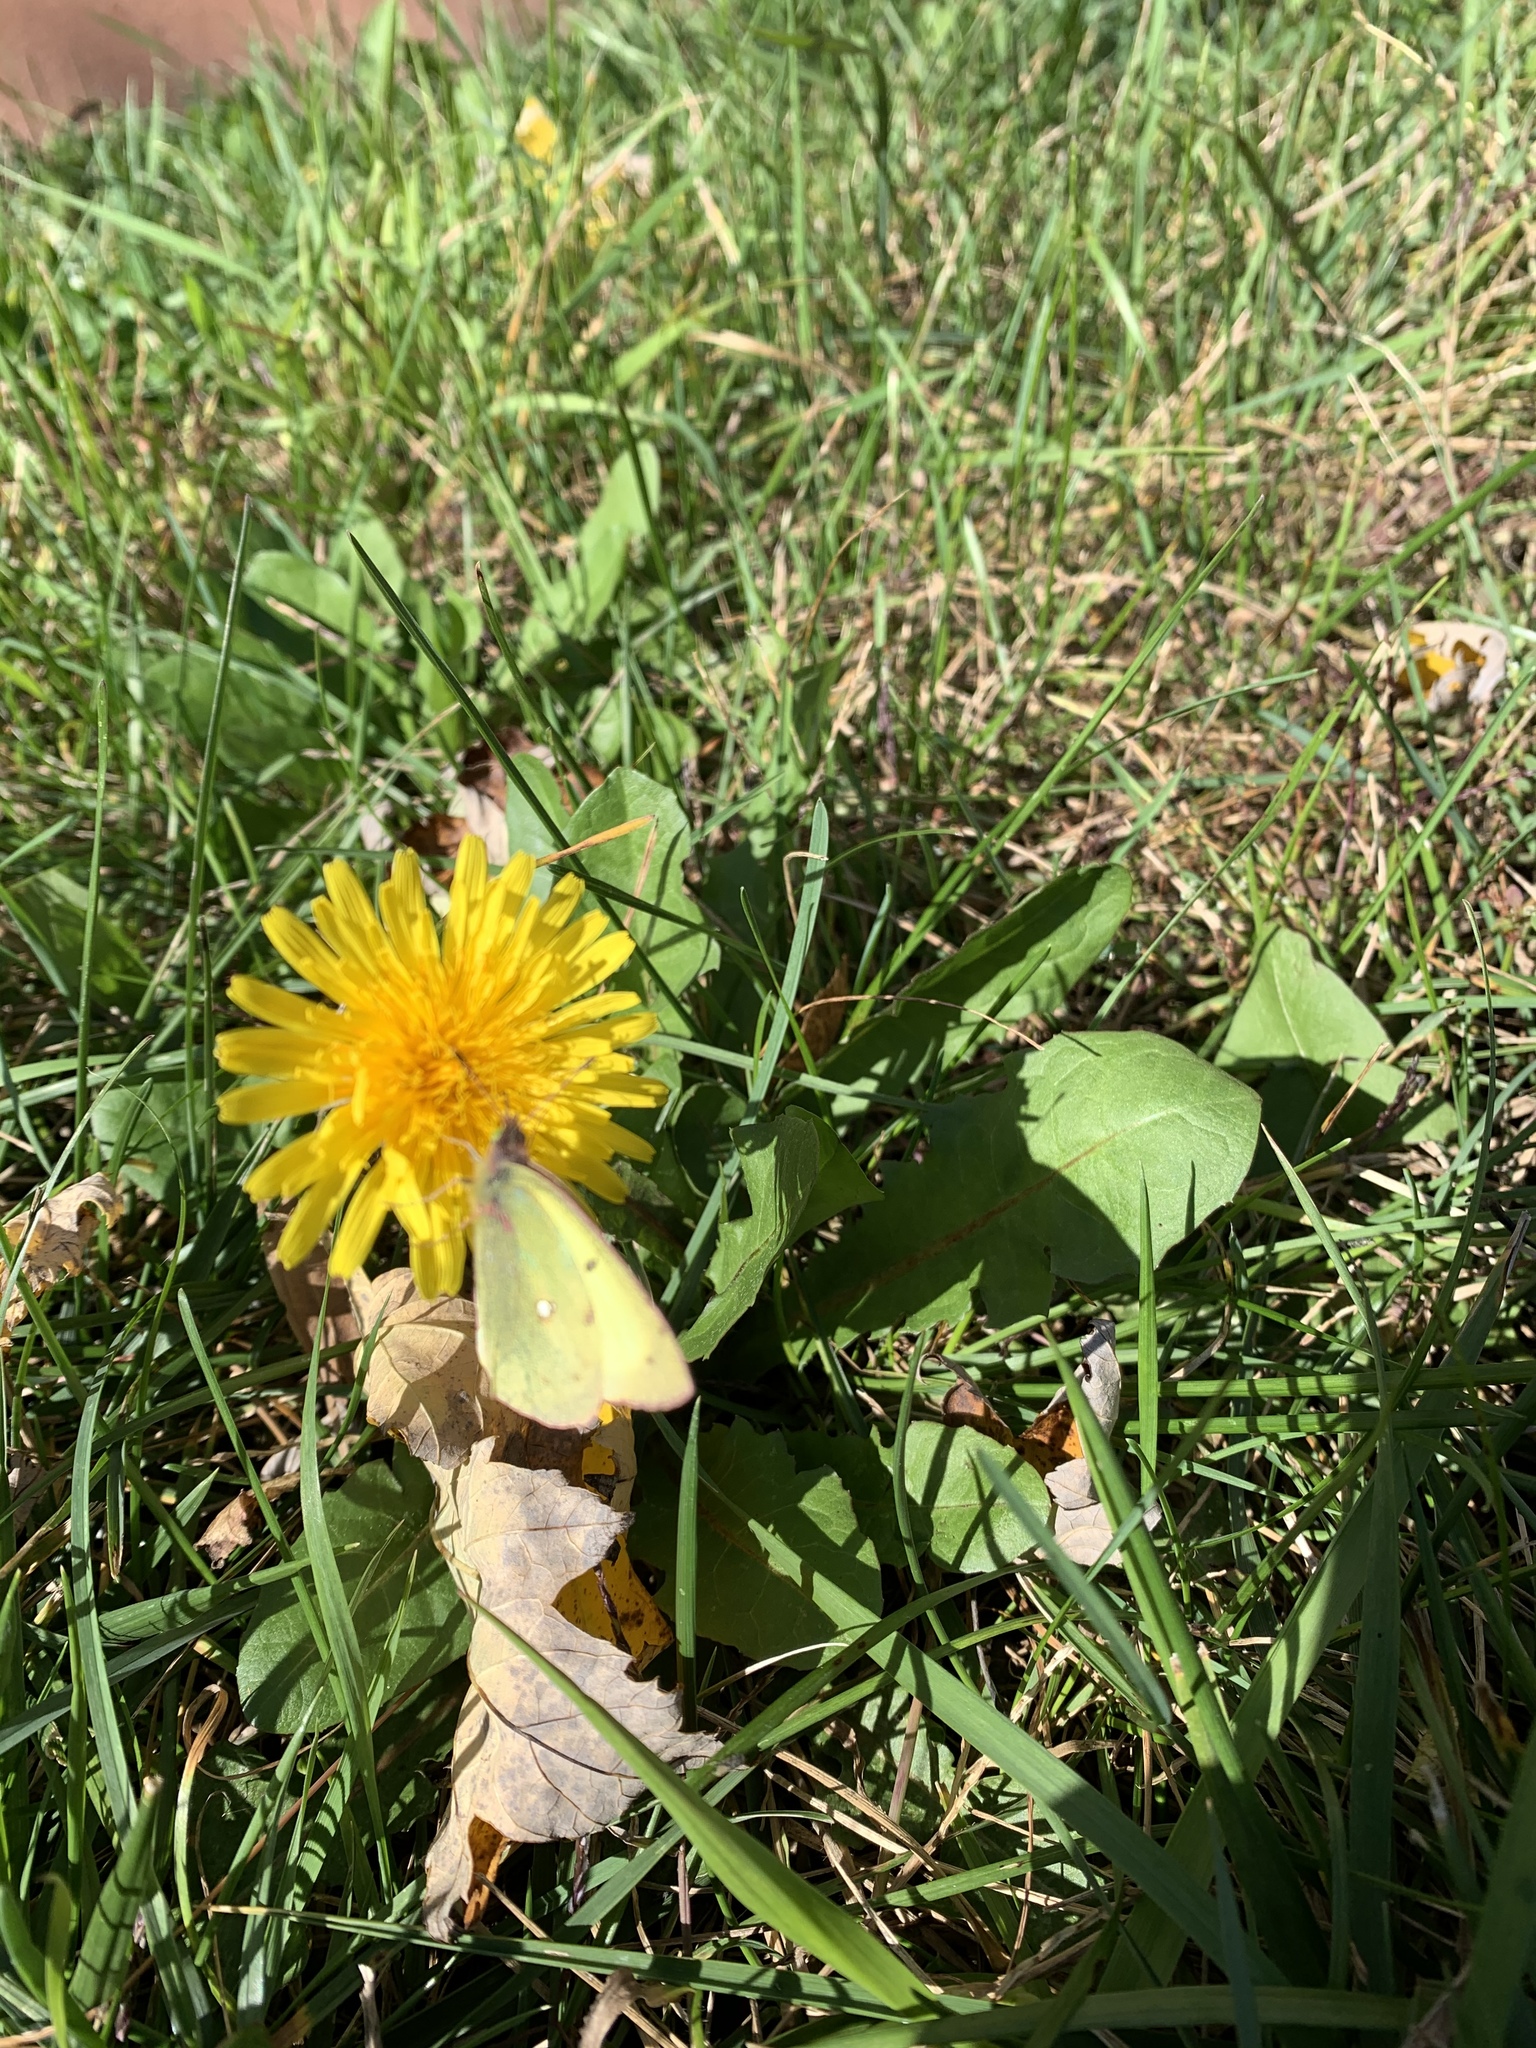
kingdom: Animalia
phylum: Arthropoda
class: Insecta
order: Lepidoptera
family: Pieridae
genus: Colias
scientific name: Colias philodice
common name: Clouded sulphur
